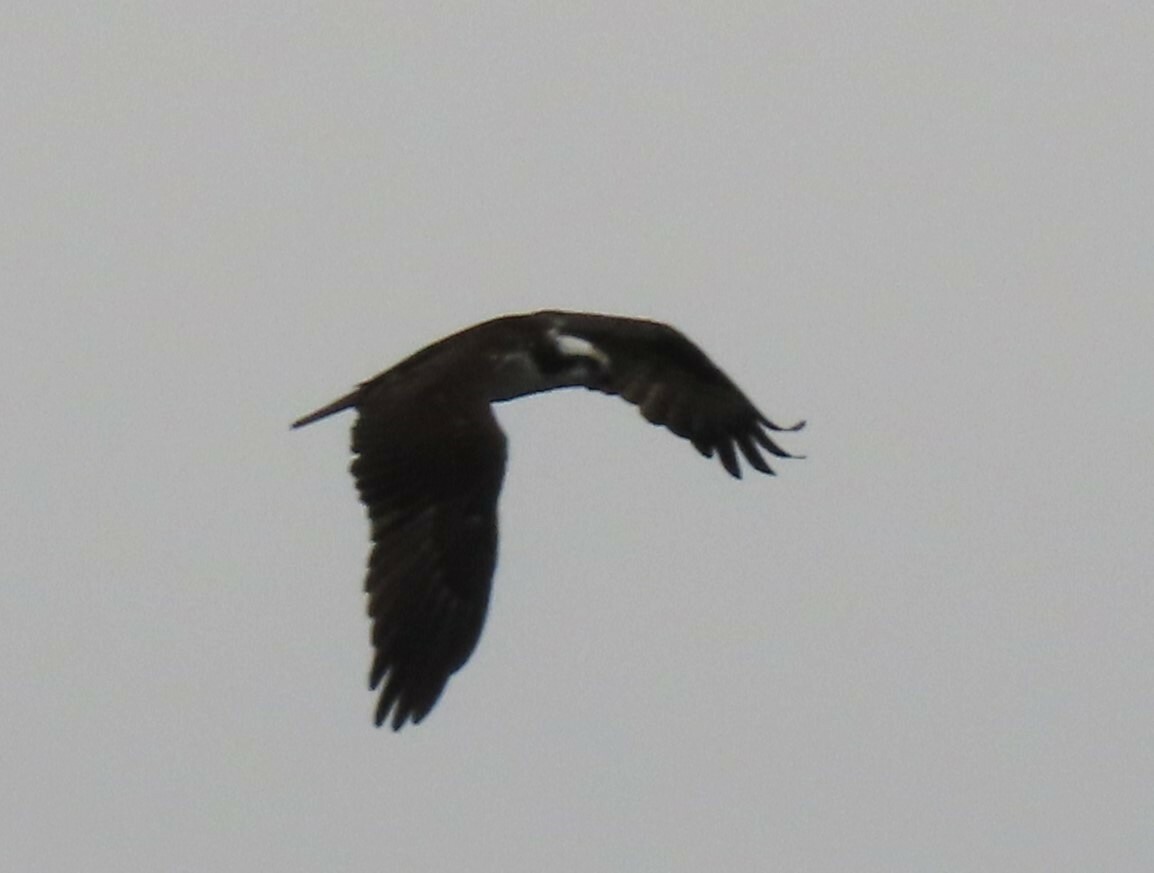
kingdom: Animalia
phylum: Chordata
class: Aves
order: Accipitriformes
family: Pandionidae
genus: Pandion
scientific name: Pandion haliaetus
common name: Osprey
